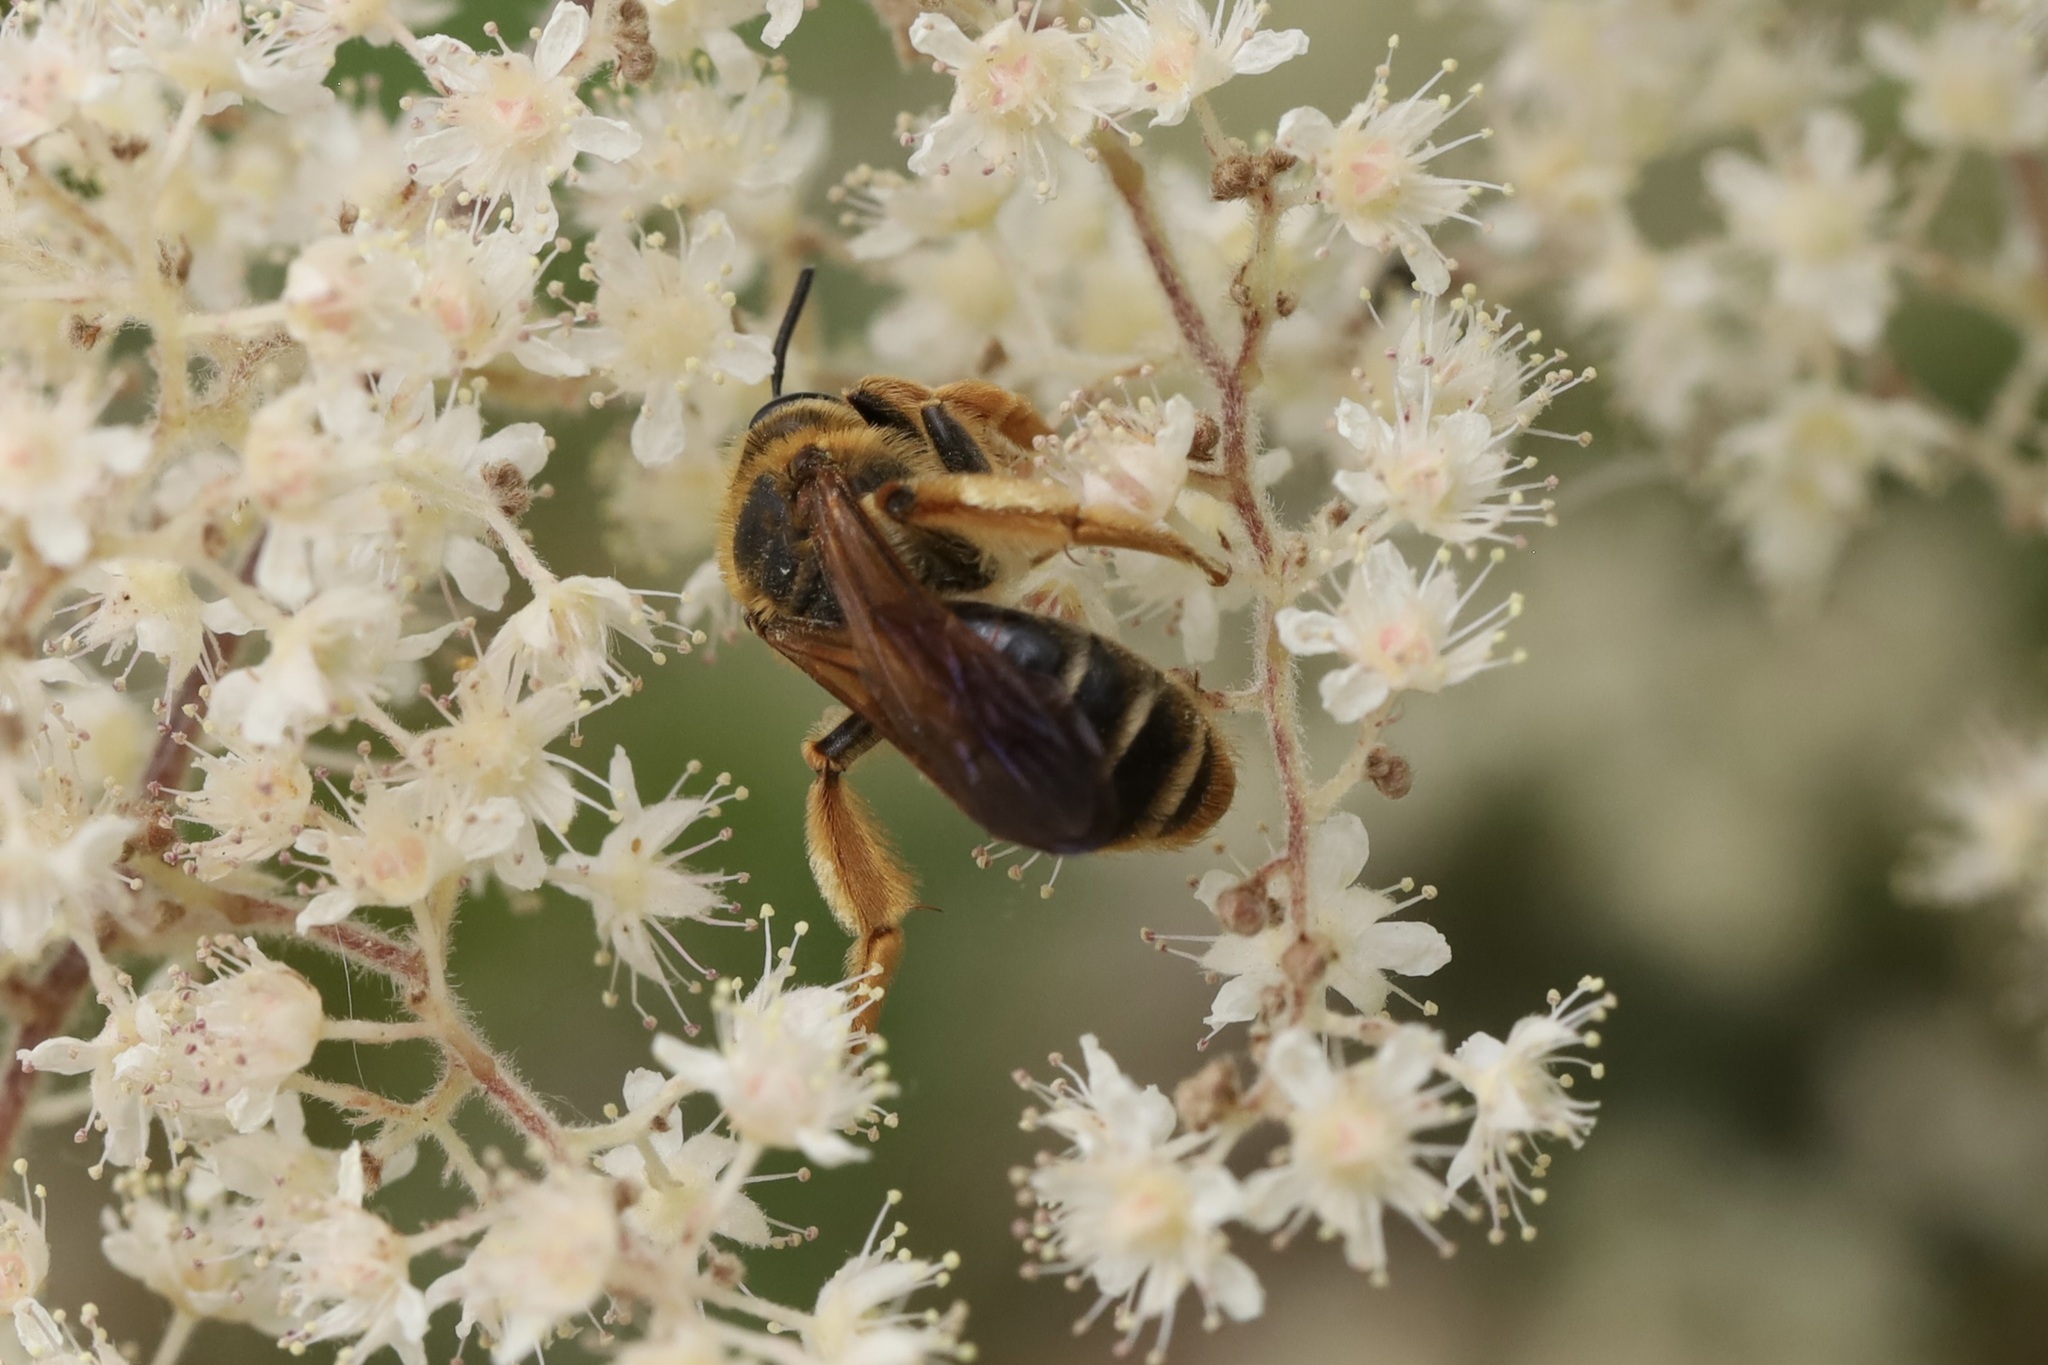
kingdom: Animalia
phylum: Arthropoda
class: Insecta
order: Hymenoptera
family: Andrenidae
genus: Andrena
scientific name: Andrena prunorum
